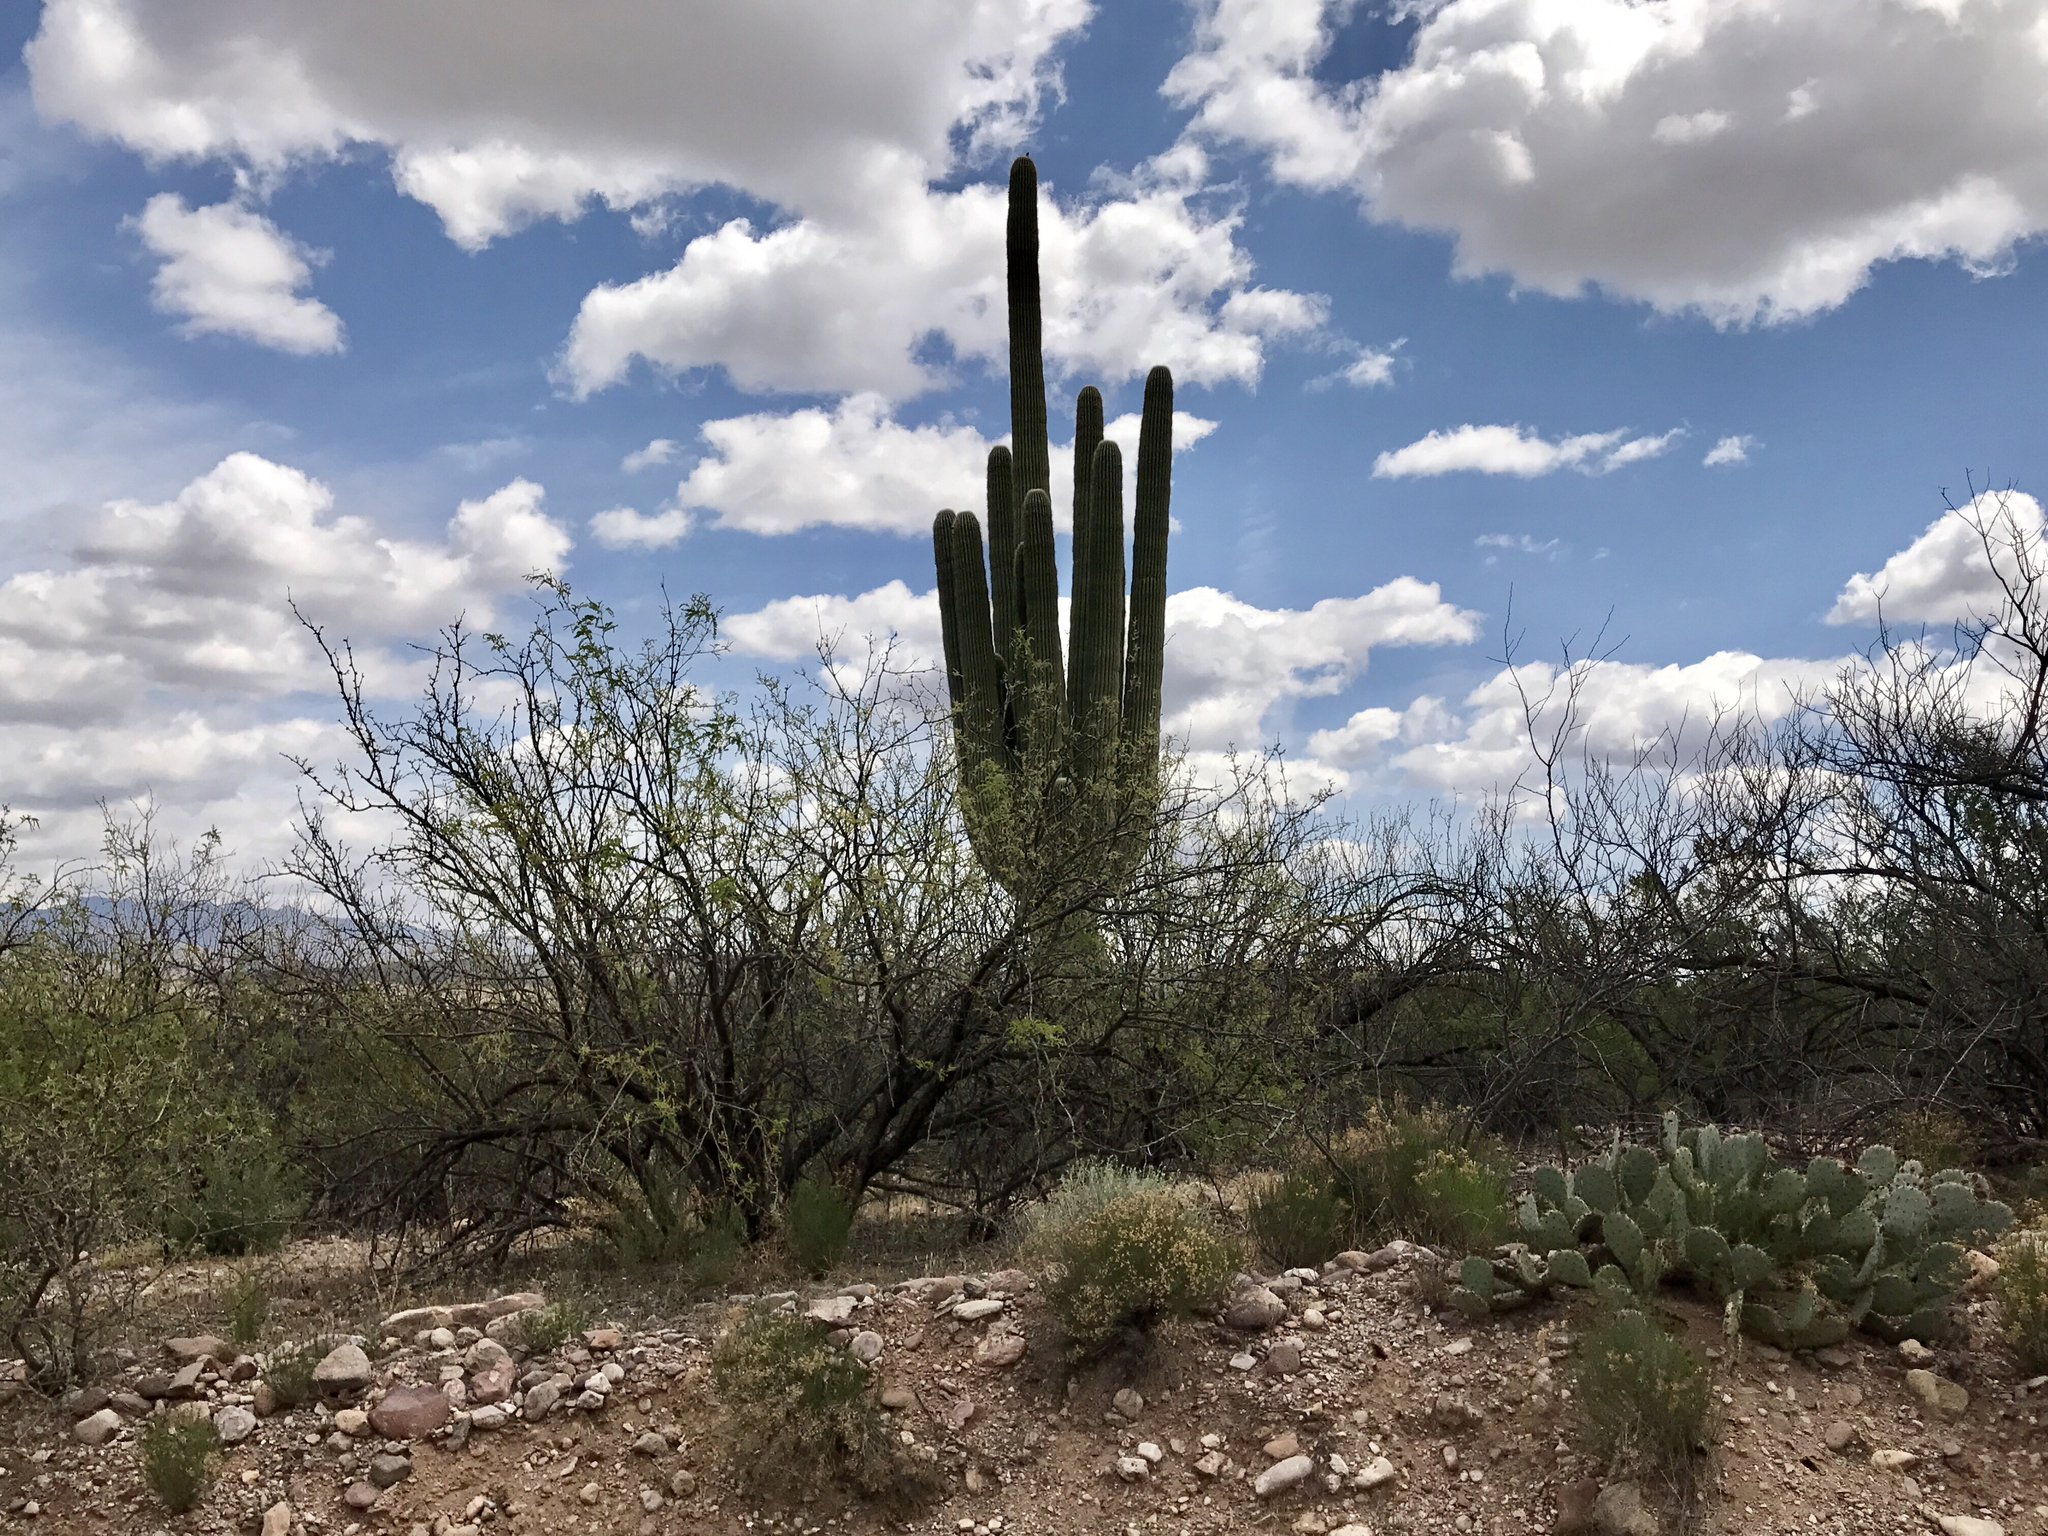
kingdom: Plantae
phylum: Tracheophyta
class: Magnoliopsida
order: Caryophyllales
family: Cactaceae
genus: Carnegiea
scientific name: Carnegiea gigantea
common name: Saguaro
